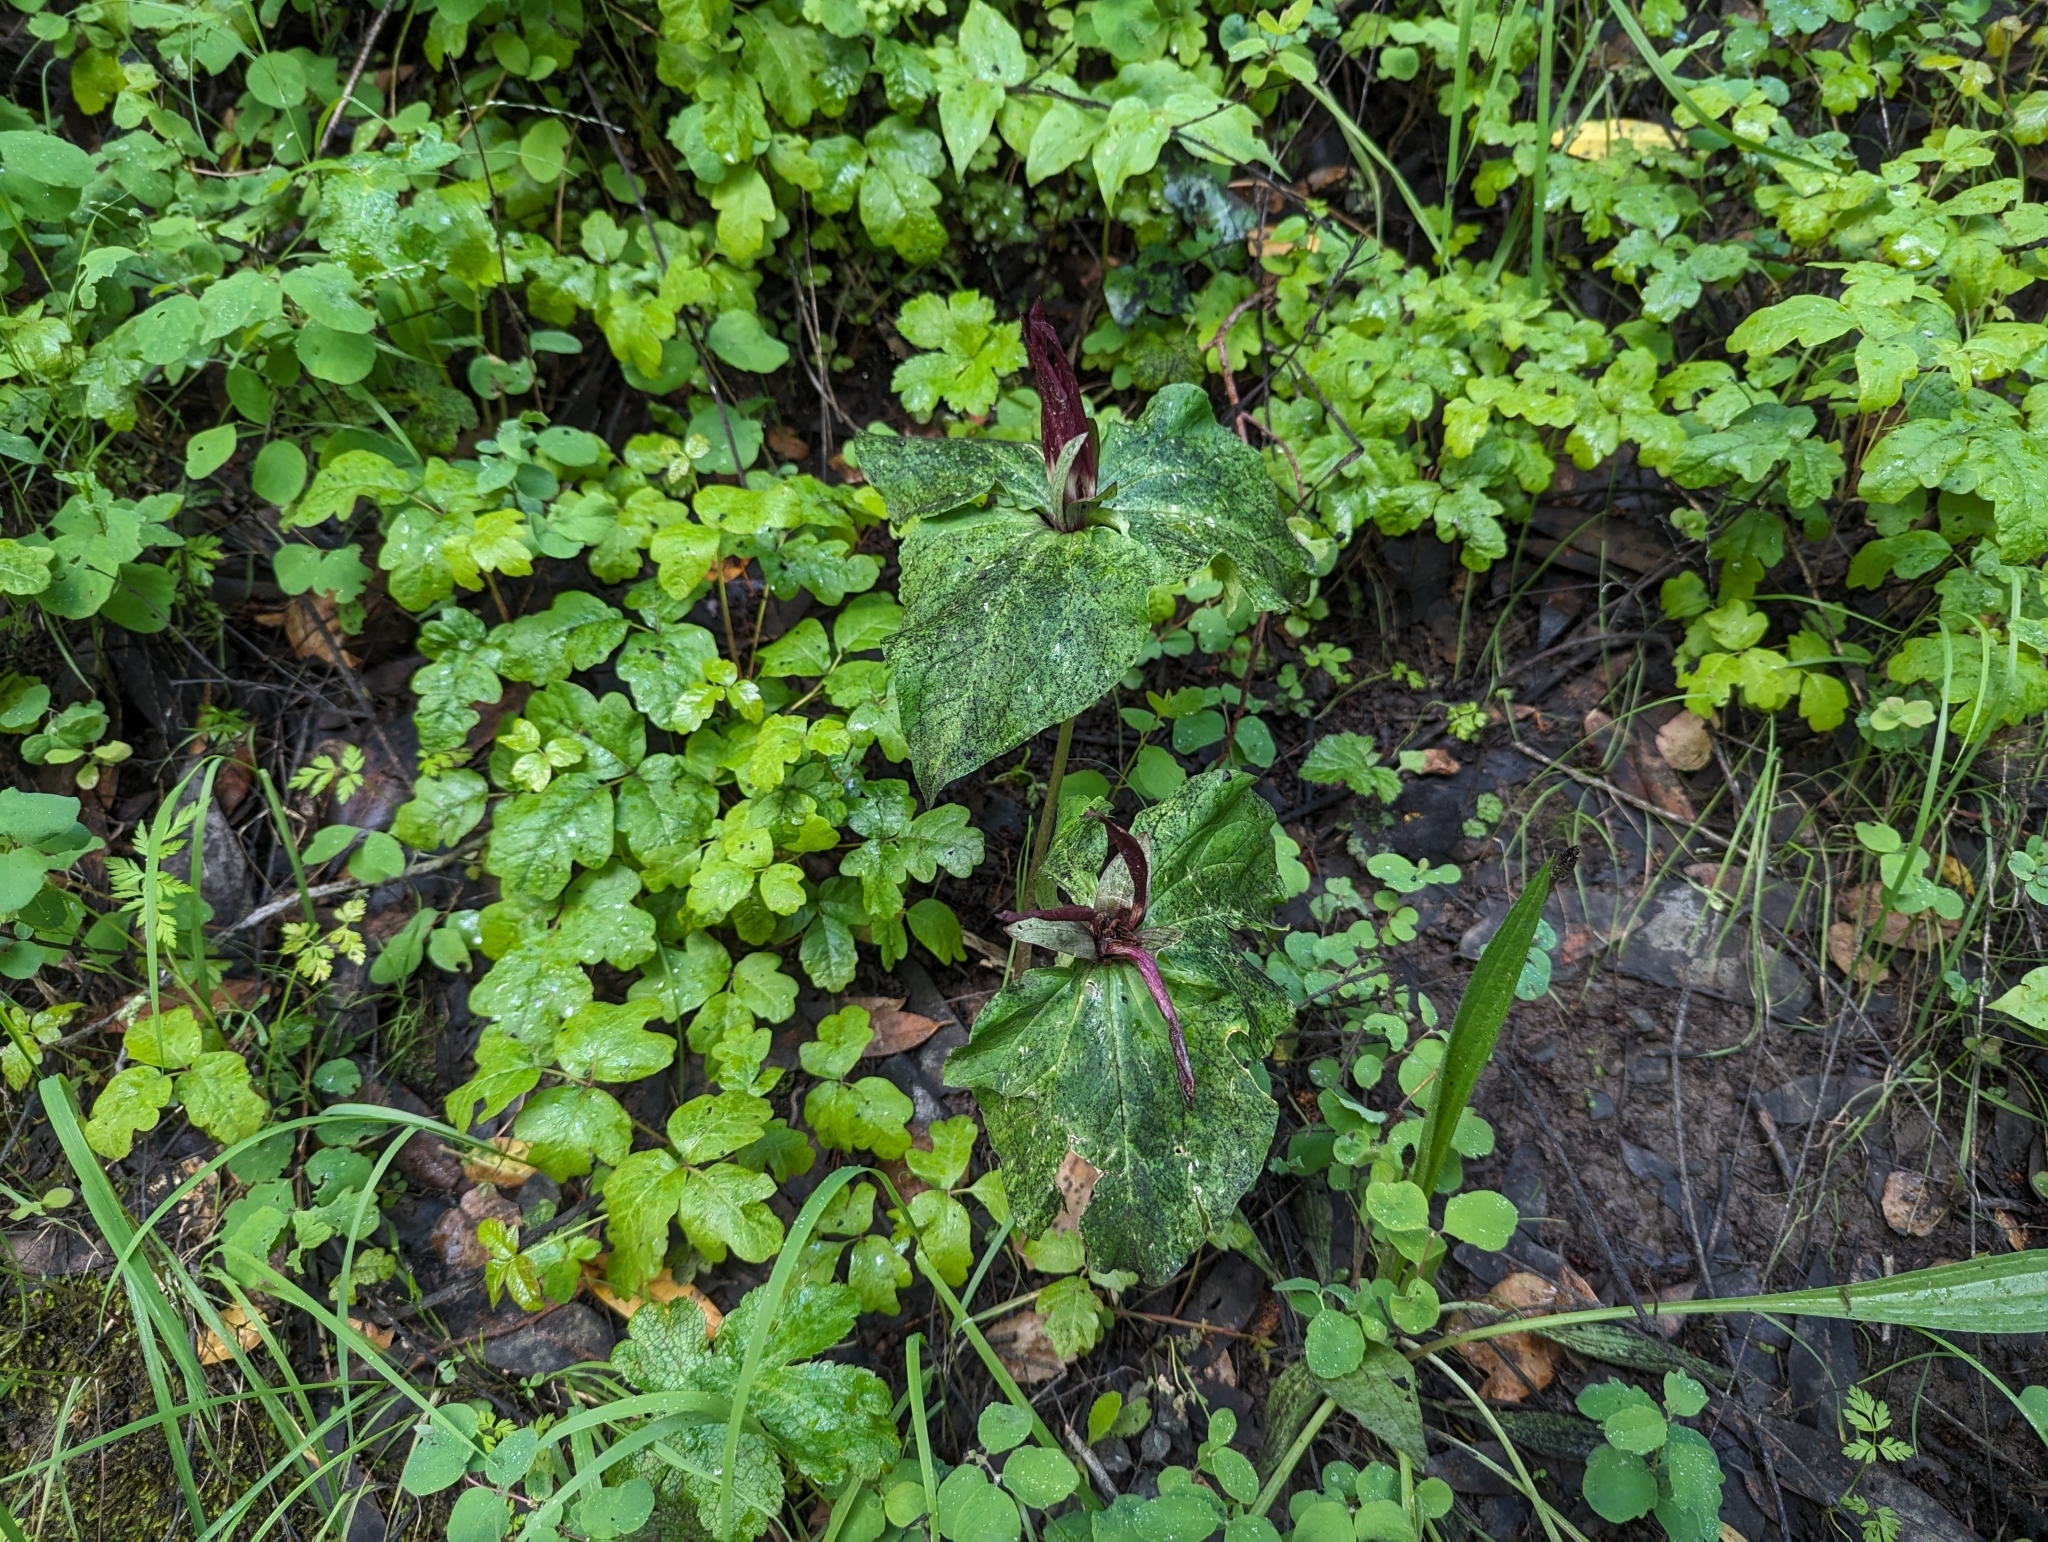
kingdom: Plantae
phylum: Tracheophyta
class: Liliopsida
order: Liliales
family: Melanthiaceae
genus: Trillium
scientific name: Trillium chloropetalum
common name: Giant trillium
